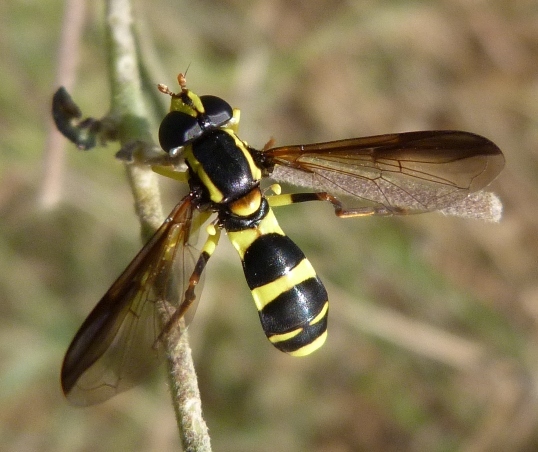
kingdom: Animalia
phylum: Arthropoda
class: Insecta
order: Diptera
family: Syrphidae
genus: Philhelius
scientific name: Philhelius marginalis
